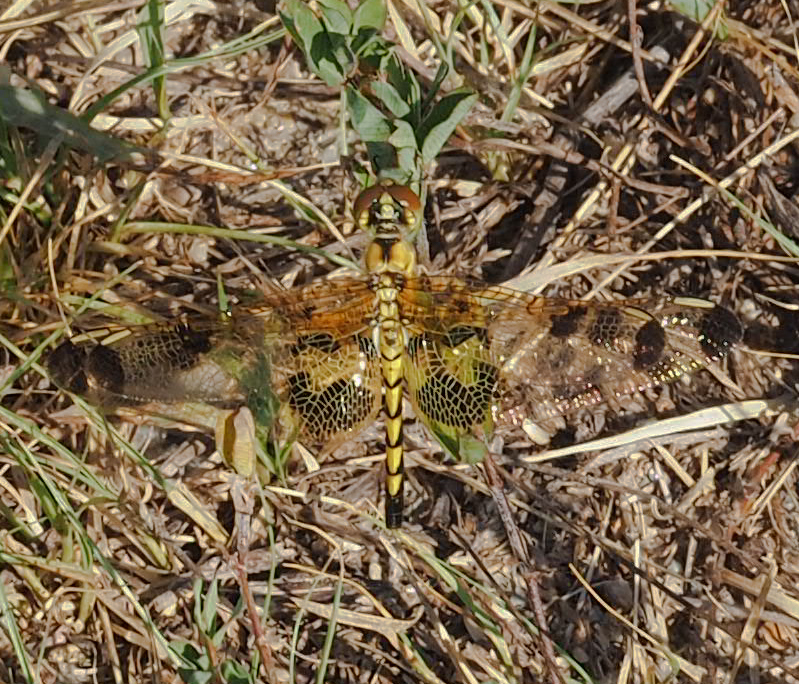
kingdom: Animalia
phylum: Arthropoda
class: Insecta
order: Odonata
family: Libellulidae
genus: Celithemis
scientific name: Celithemis elisa
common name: Calico pennant
